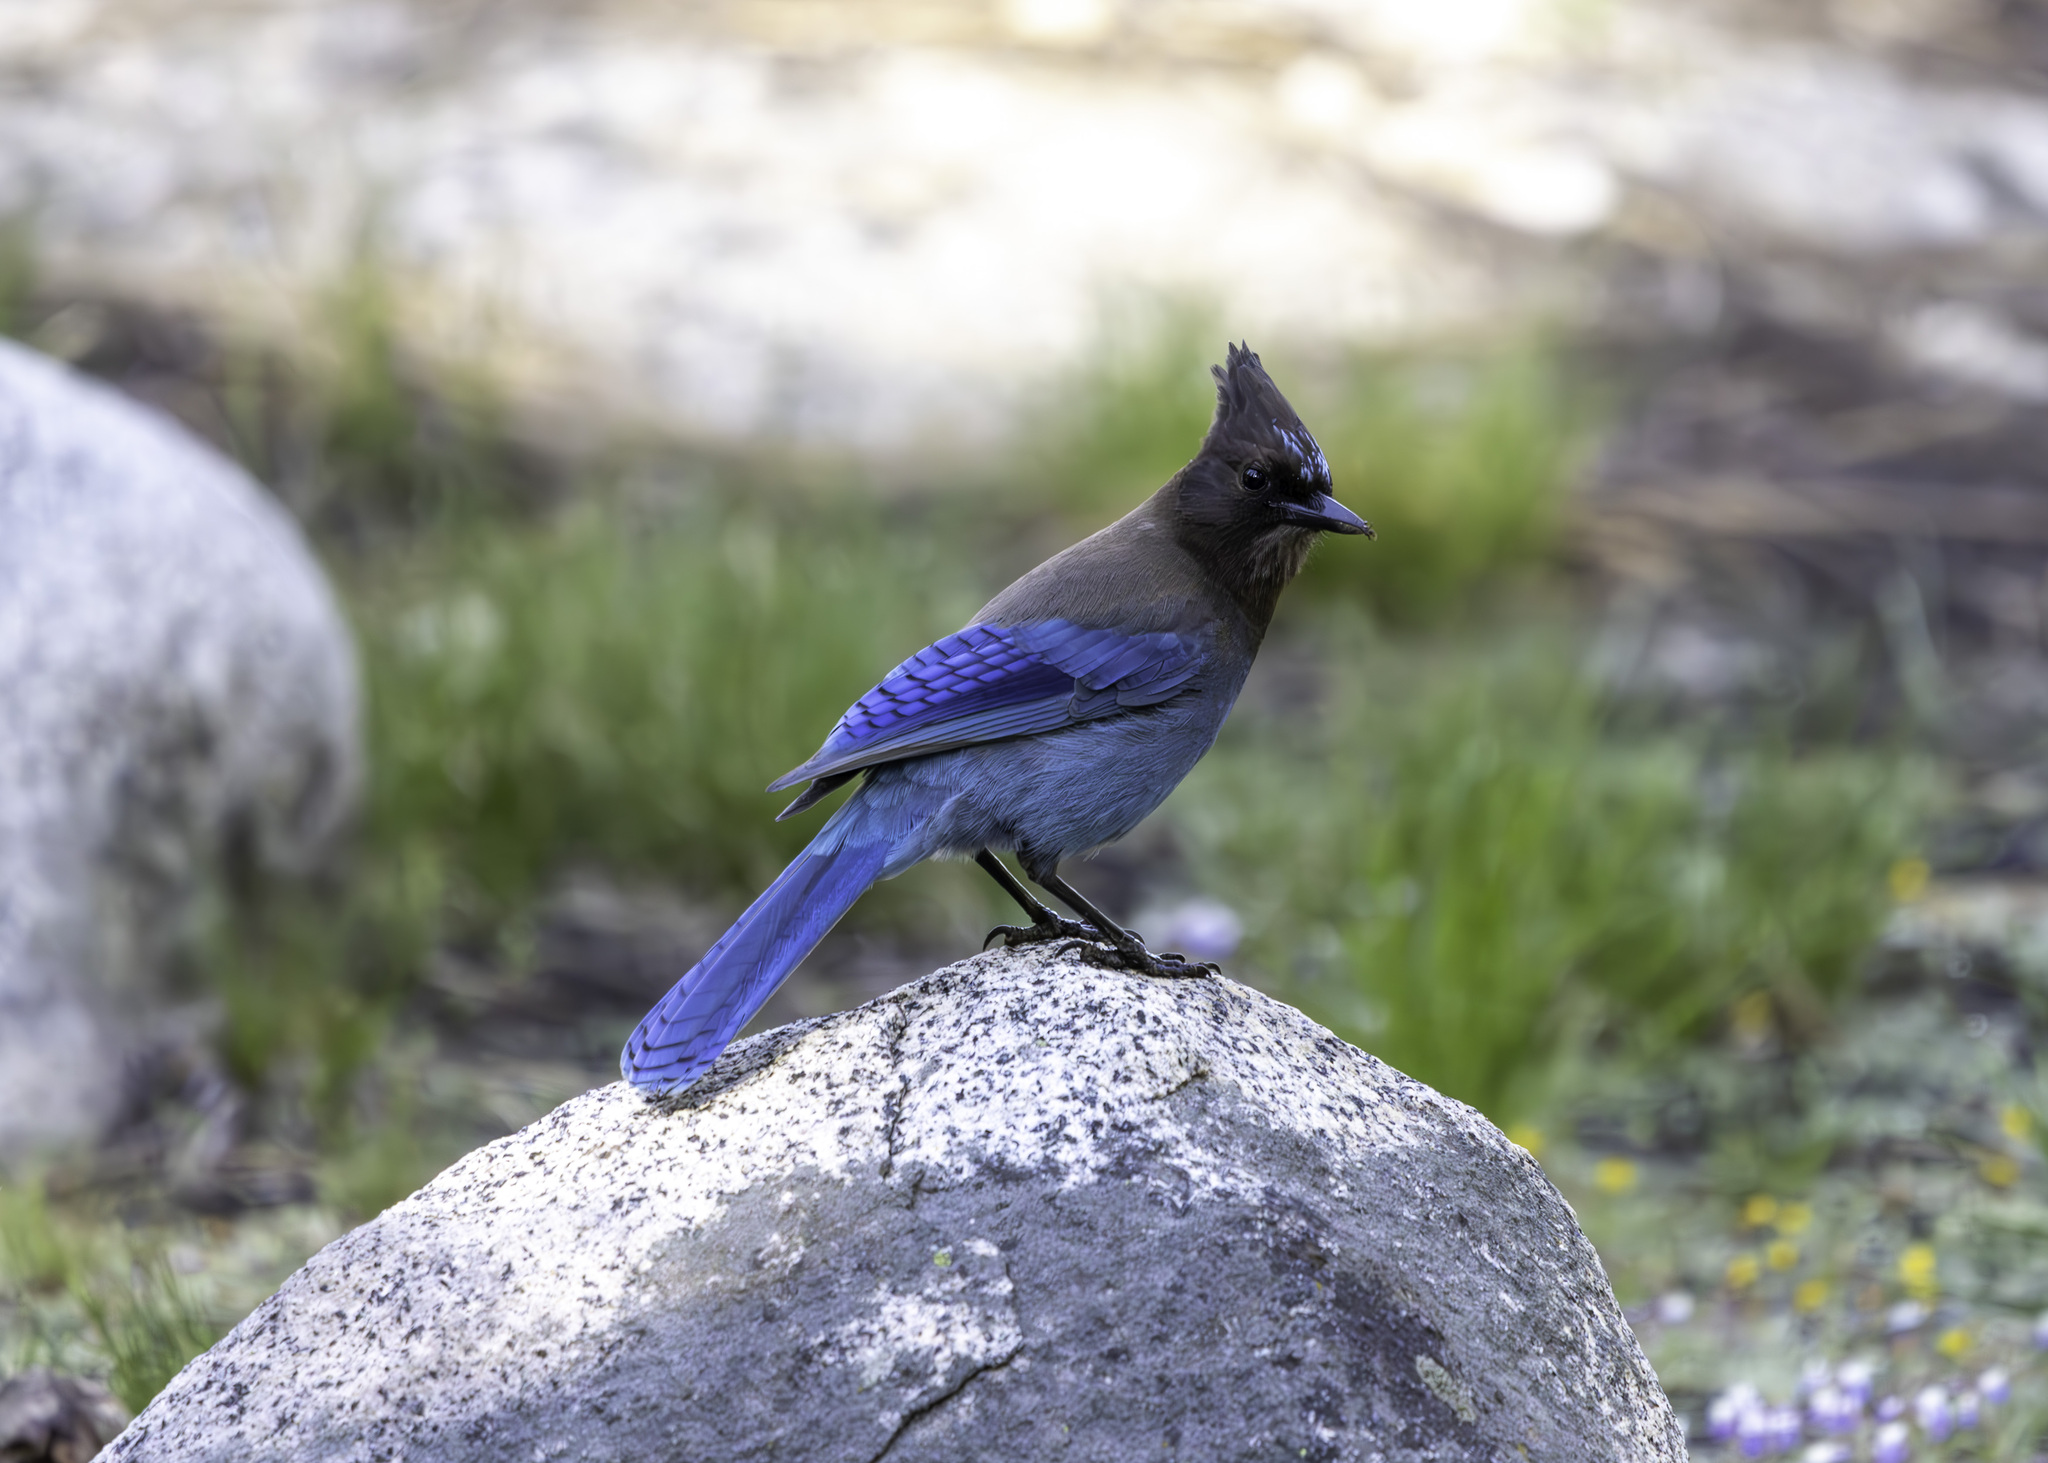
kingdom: Animalia
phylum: Chordata
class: Aves
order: Passeriformes
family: Corvidae
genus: Cyanocitta
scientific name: Cyanocitta stelleri
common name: Steller's jay
